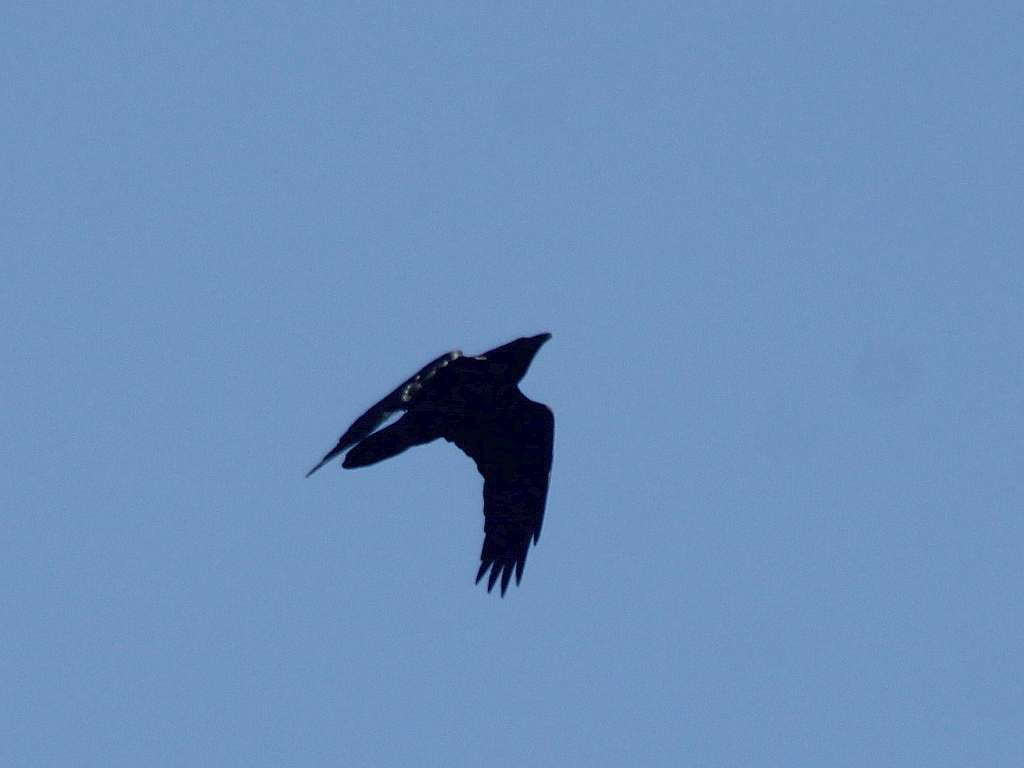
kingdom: Animalia
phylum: Chordata
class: Aves
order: Passeriformes
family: Corvidae
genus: Corvus
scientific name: Corvus corax
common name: Common raven
